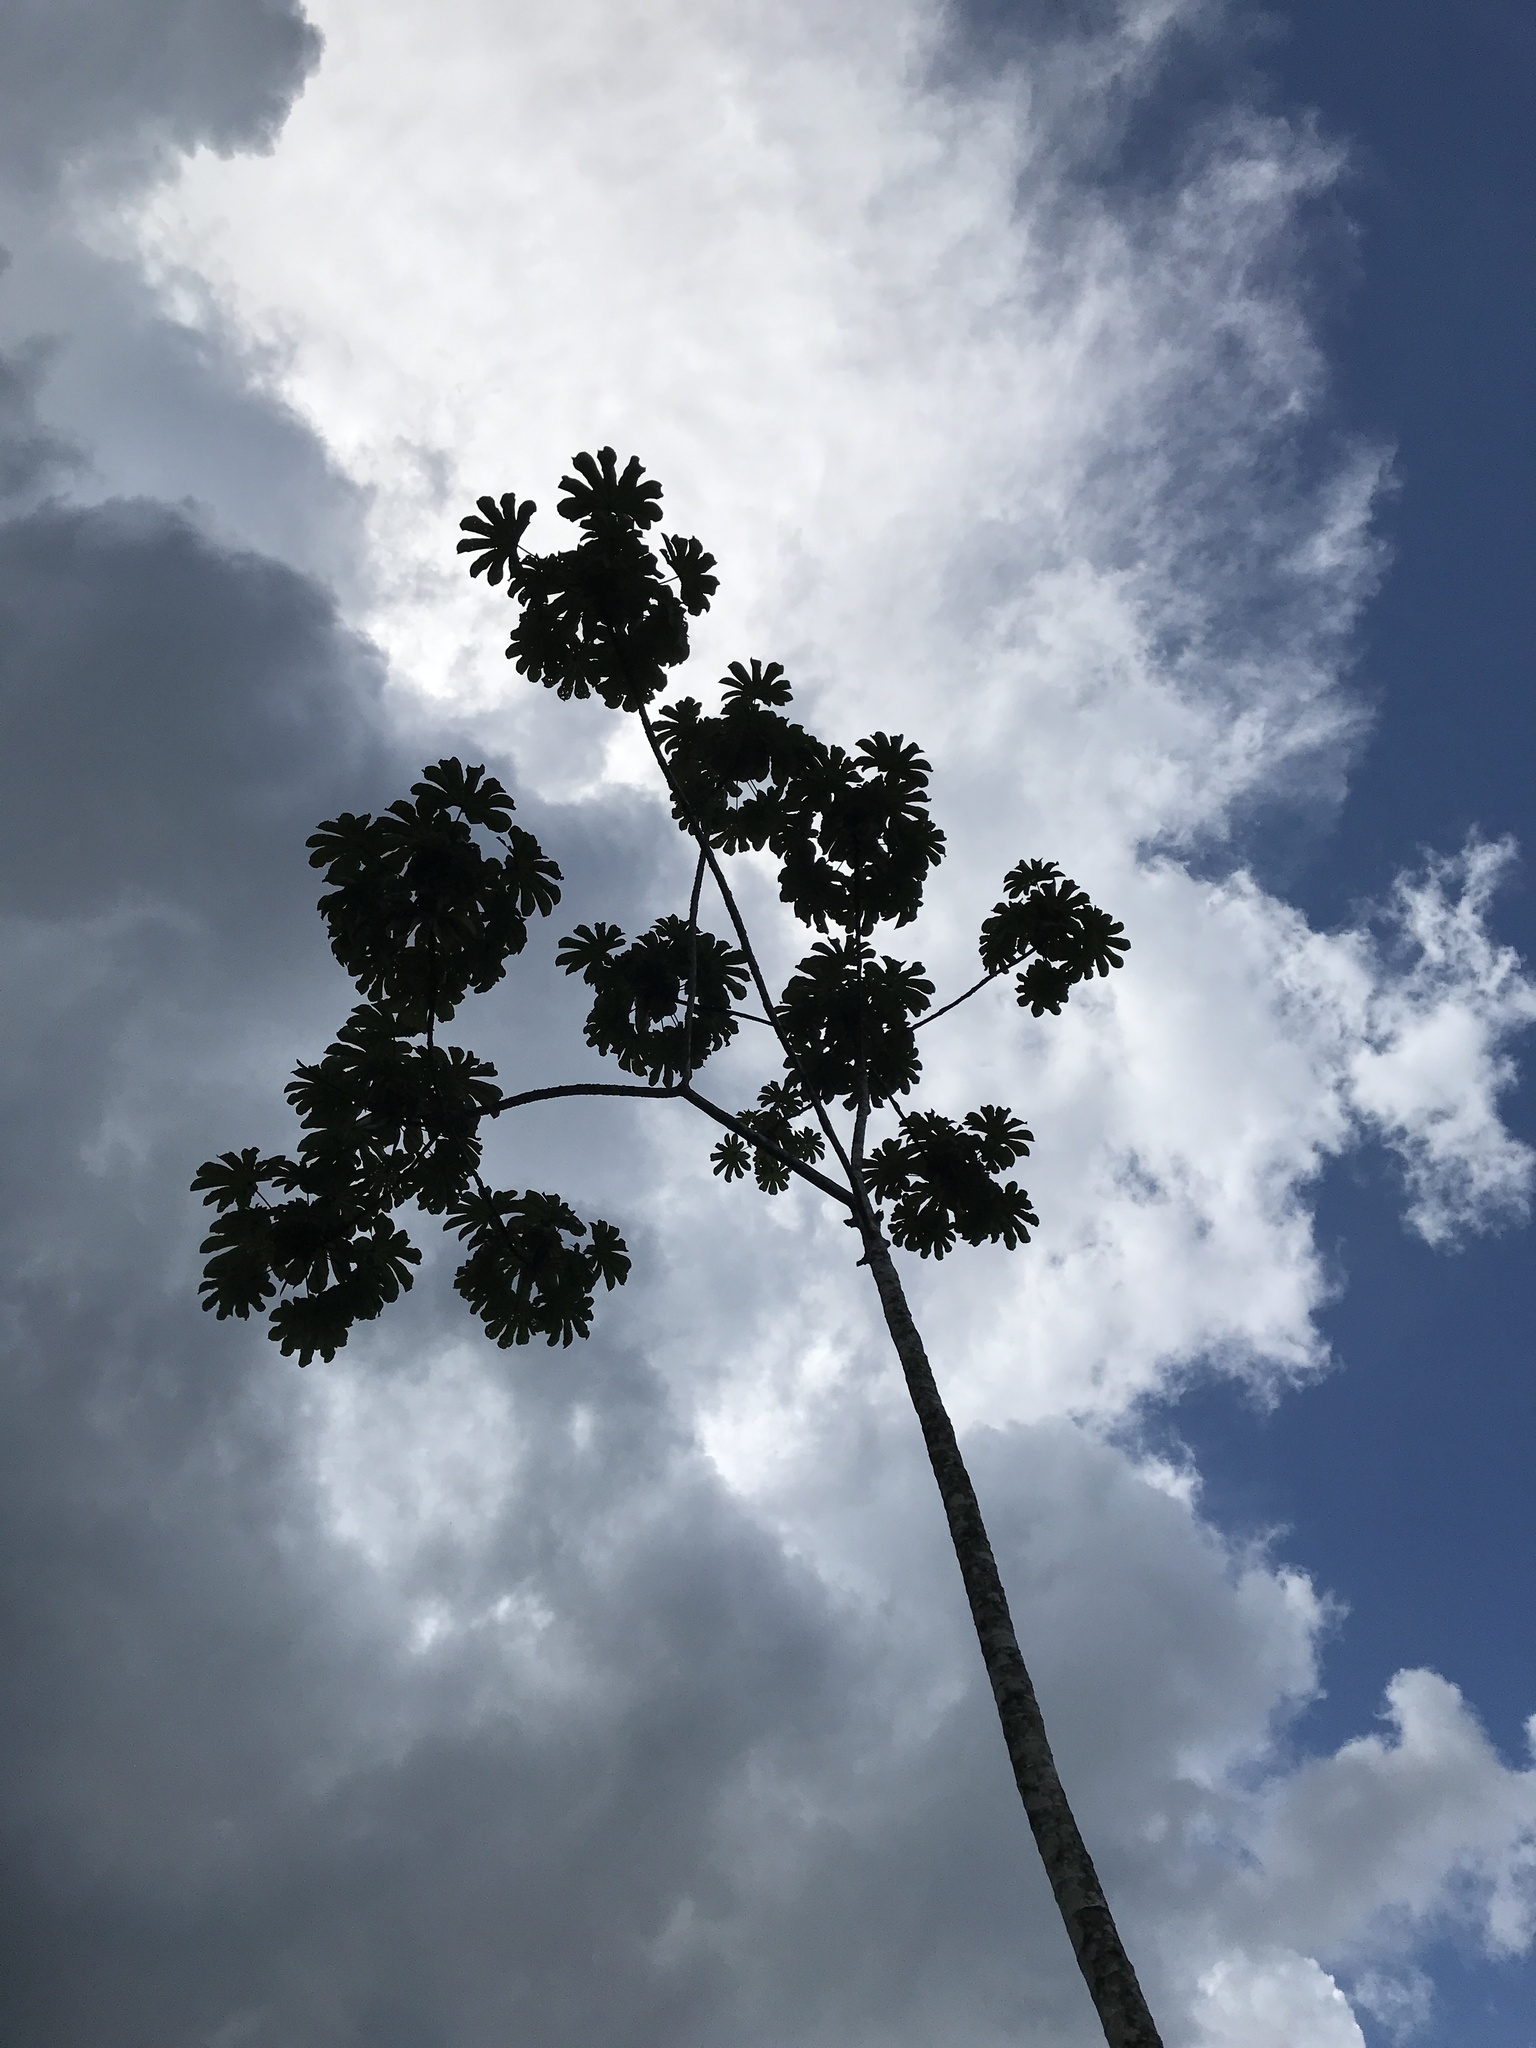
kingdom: Plantae
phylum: Tracheophyta
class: Magnoliopsida
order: Rosales
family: Urticaceae
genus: Cecropia
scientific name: Cecropia peltata
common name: Trumpet-tree
